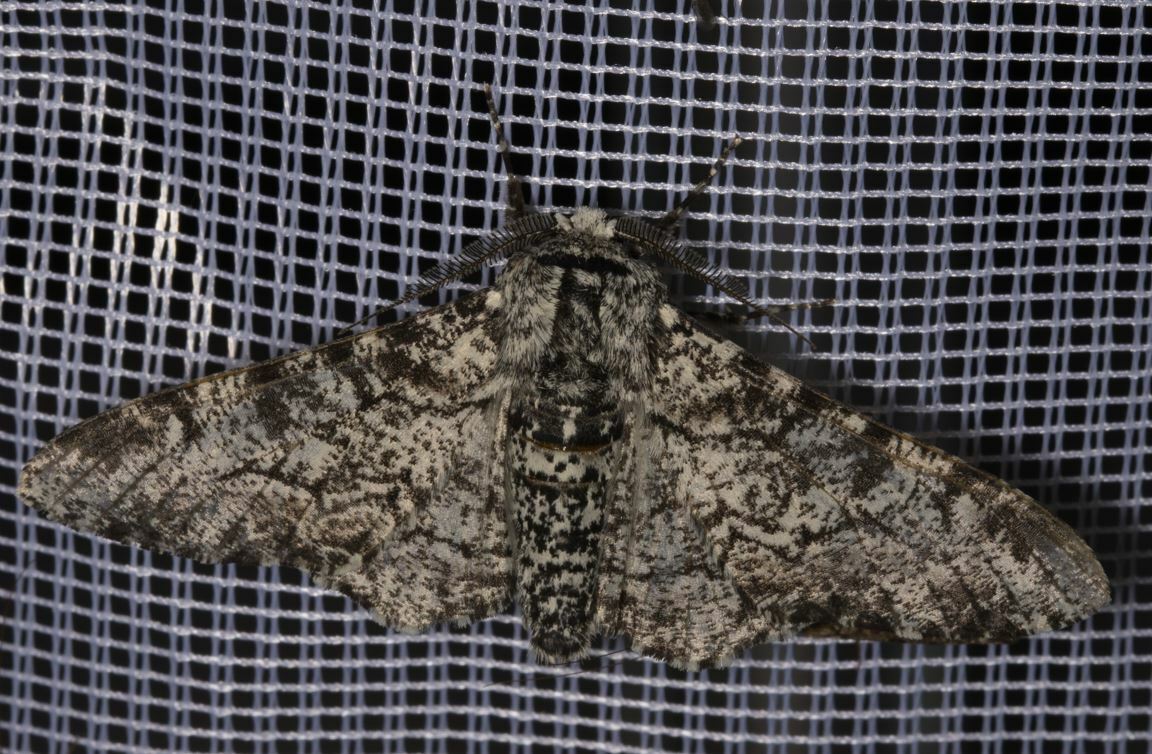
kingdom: Animalia
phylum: Arthropoda
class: Insecta
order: Lepidoptera
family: Geometridae
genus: Biston
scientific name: Biston betularia
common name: Peppered moth
